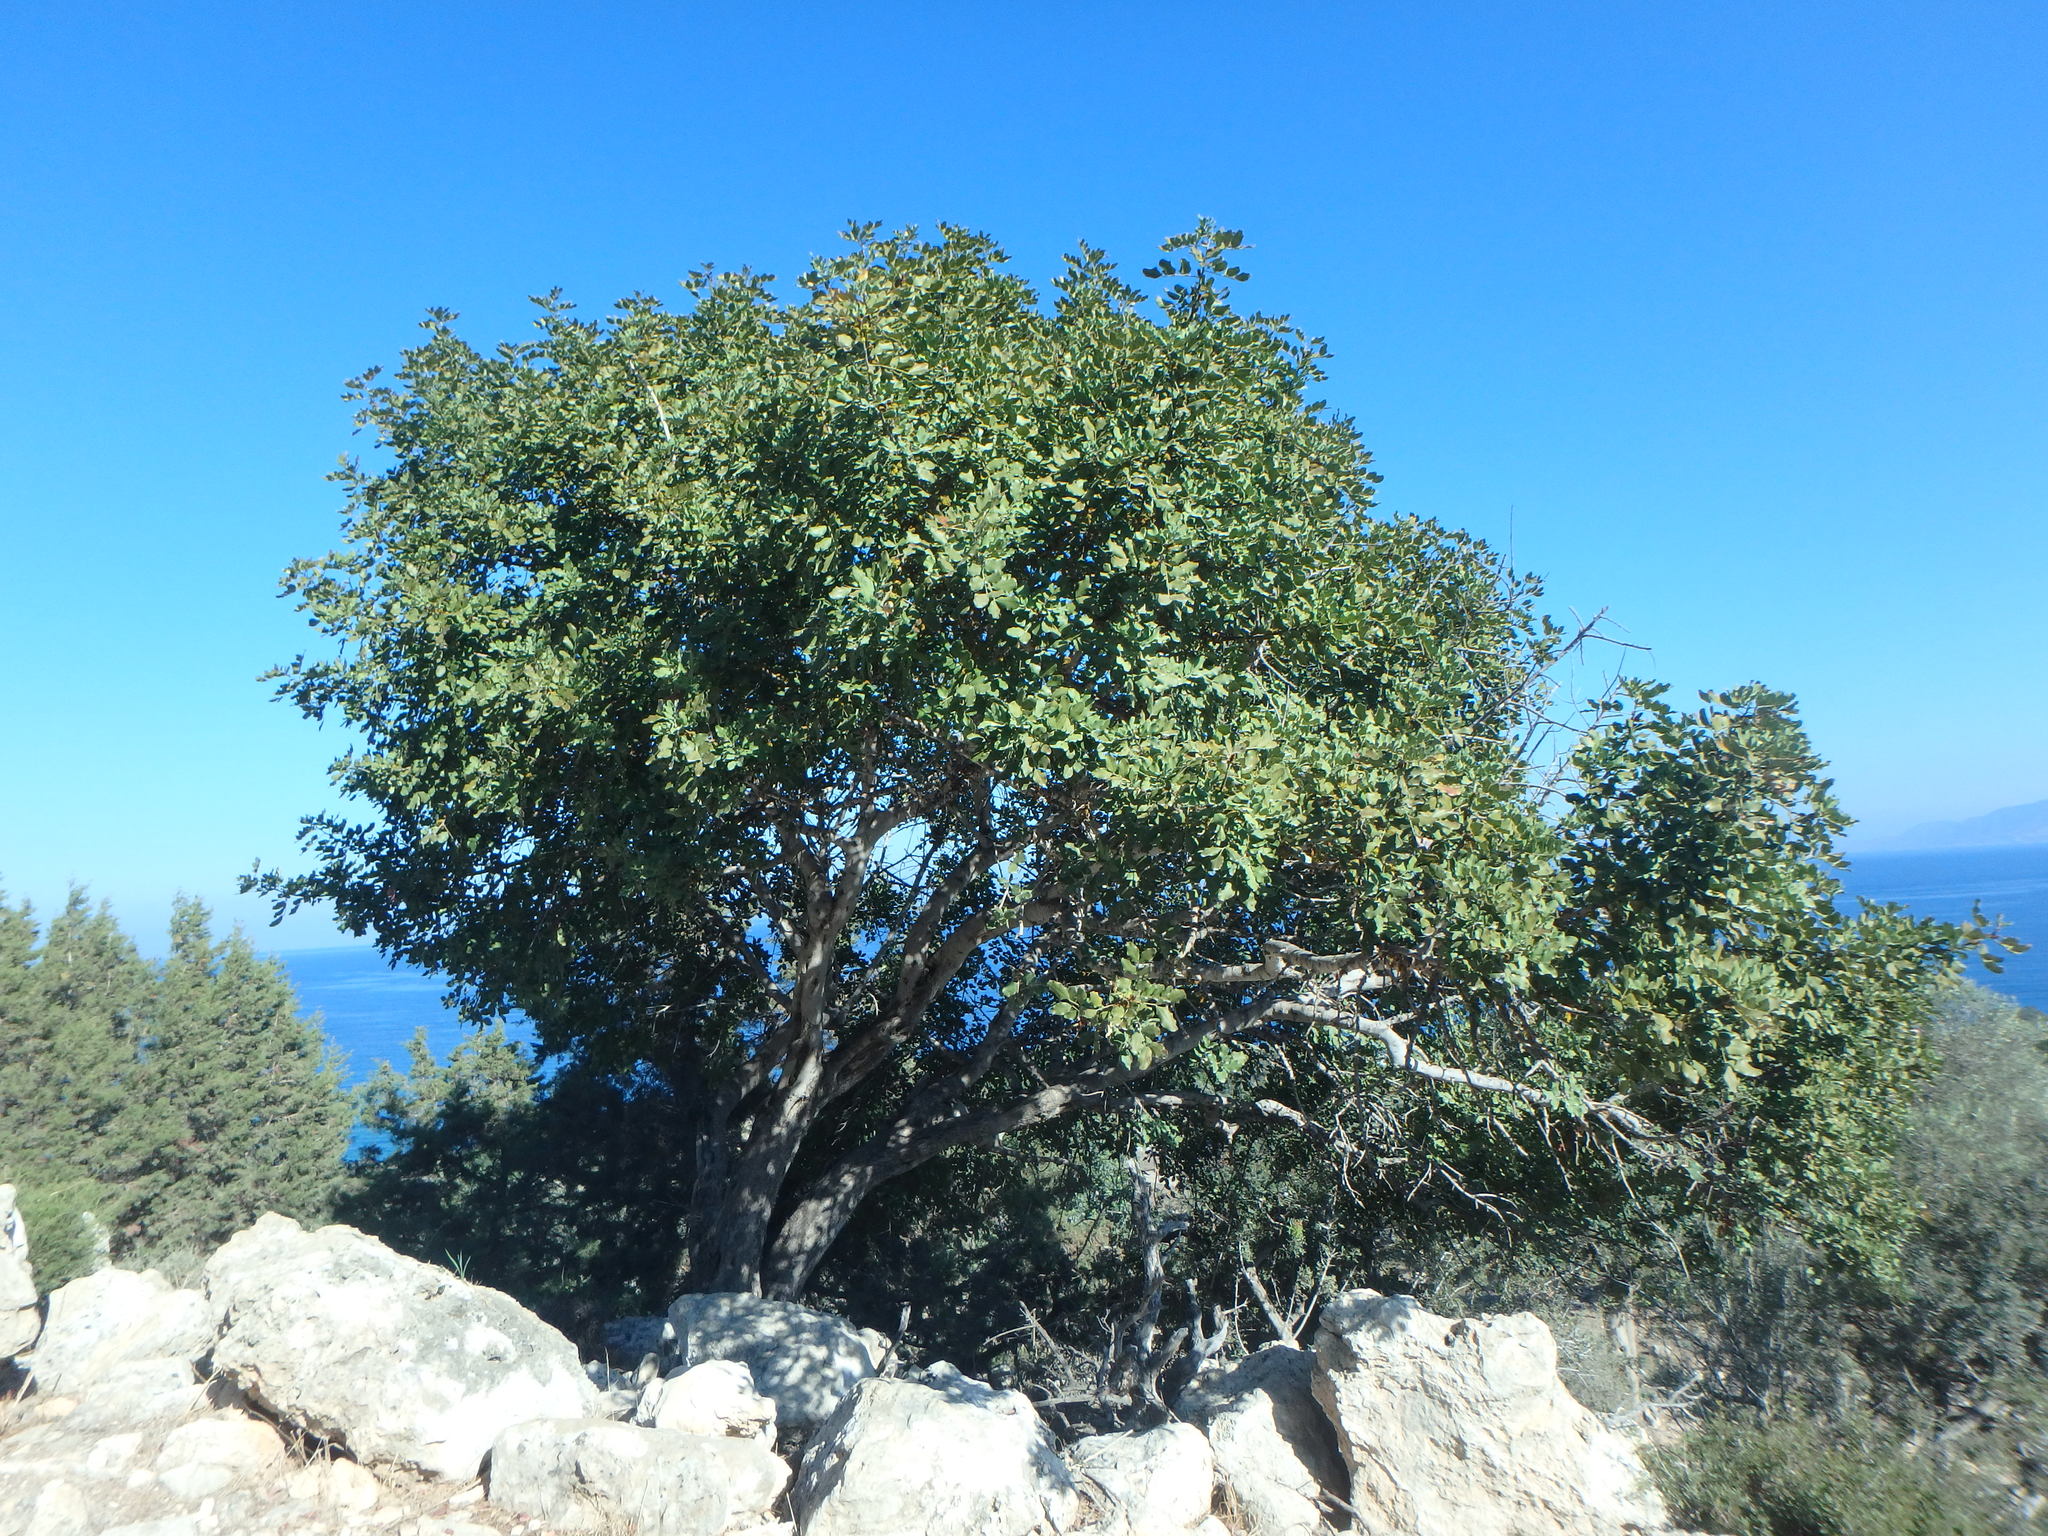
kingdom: Plantae
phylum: Tracheophyta
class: Magnoliopsida
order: Fabales
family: Fabaceae
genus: Ceratonia
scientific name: Ceratonia siliqua
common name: Carob
